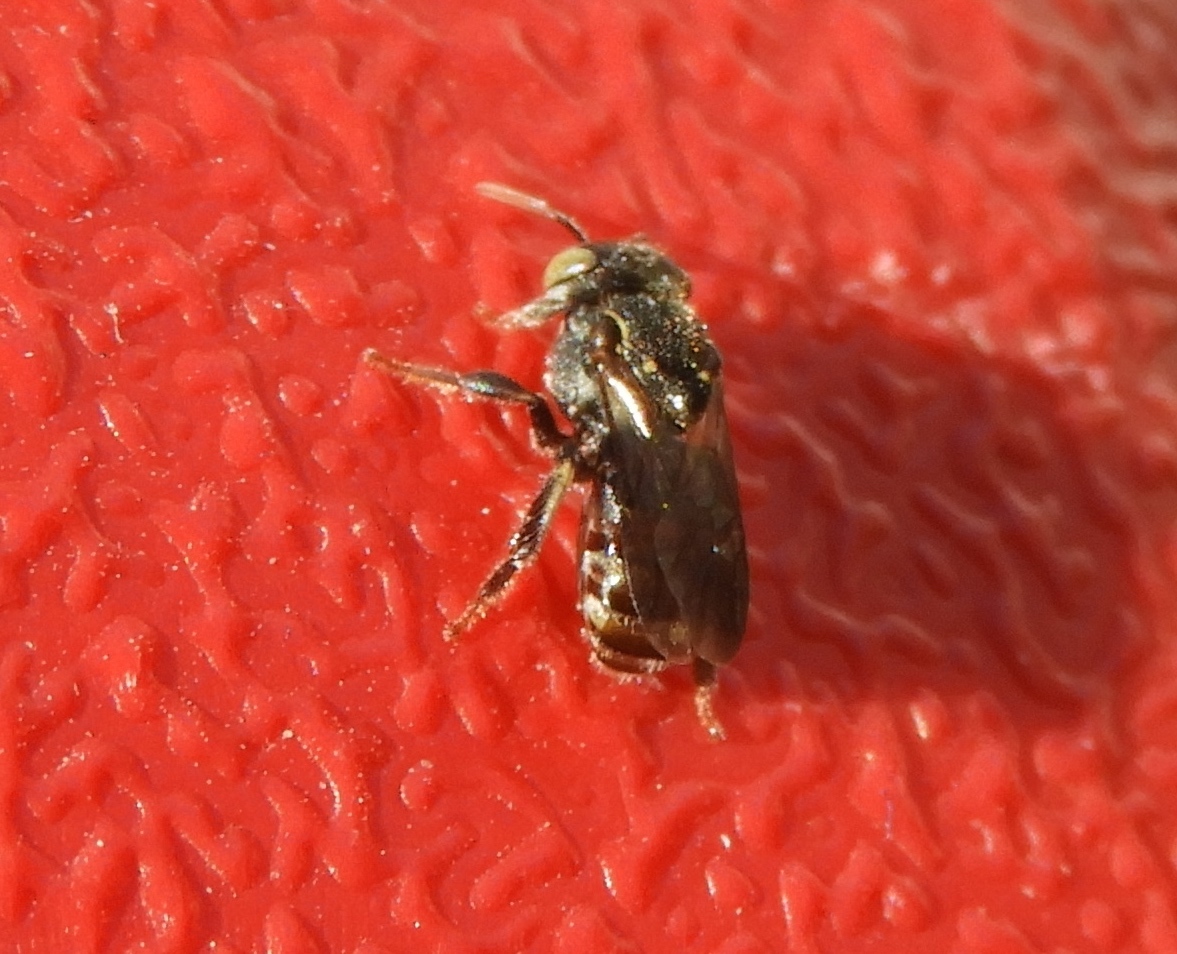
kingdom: Animalia
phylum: Arthropoda
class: Insecta
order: Hymenoptera
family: Apidae
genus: Nannotrigona
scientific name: Nannotrigona perilampoides
